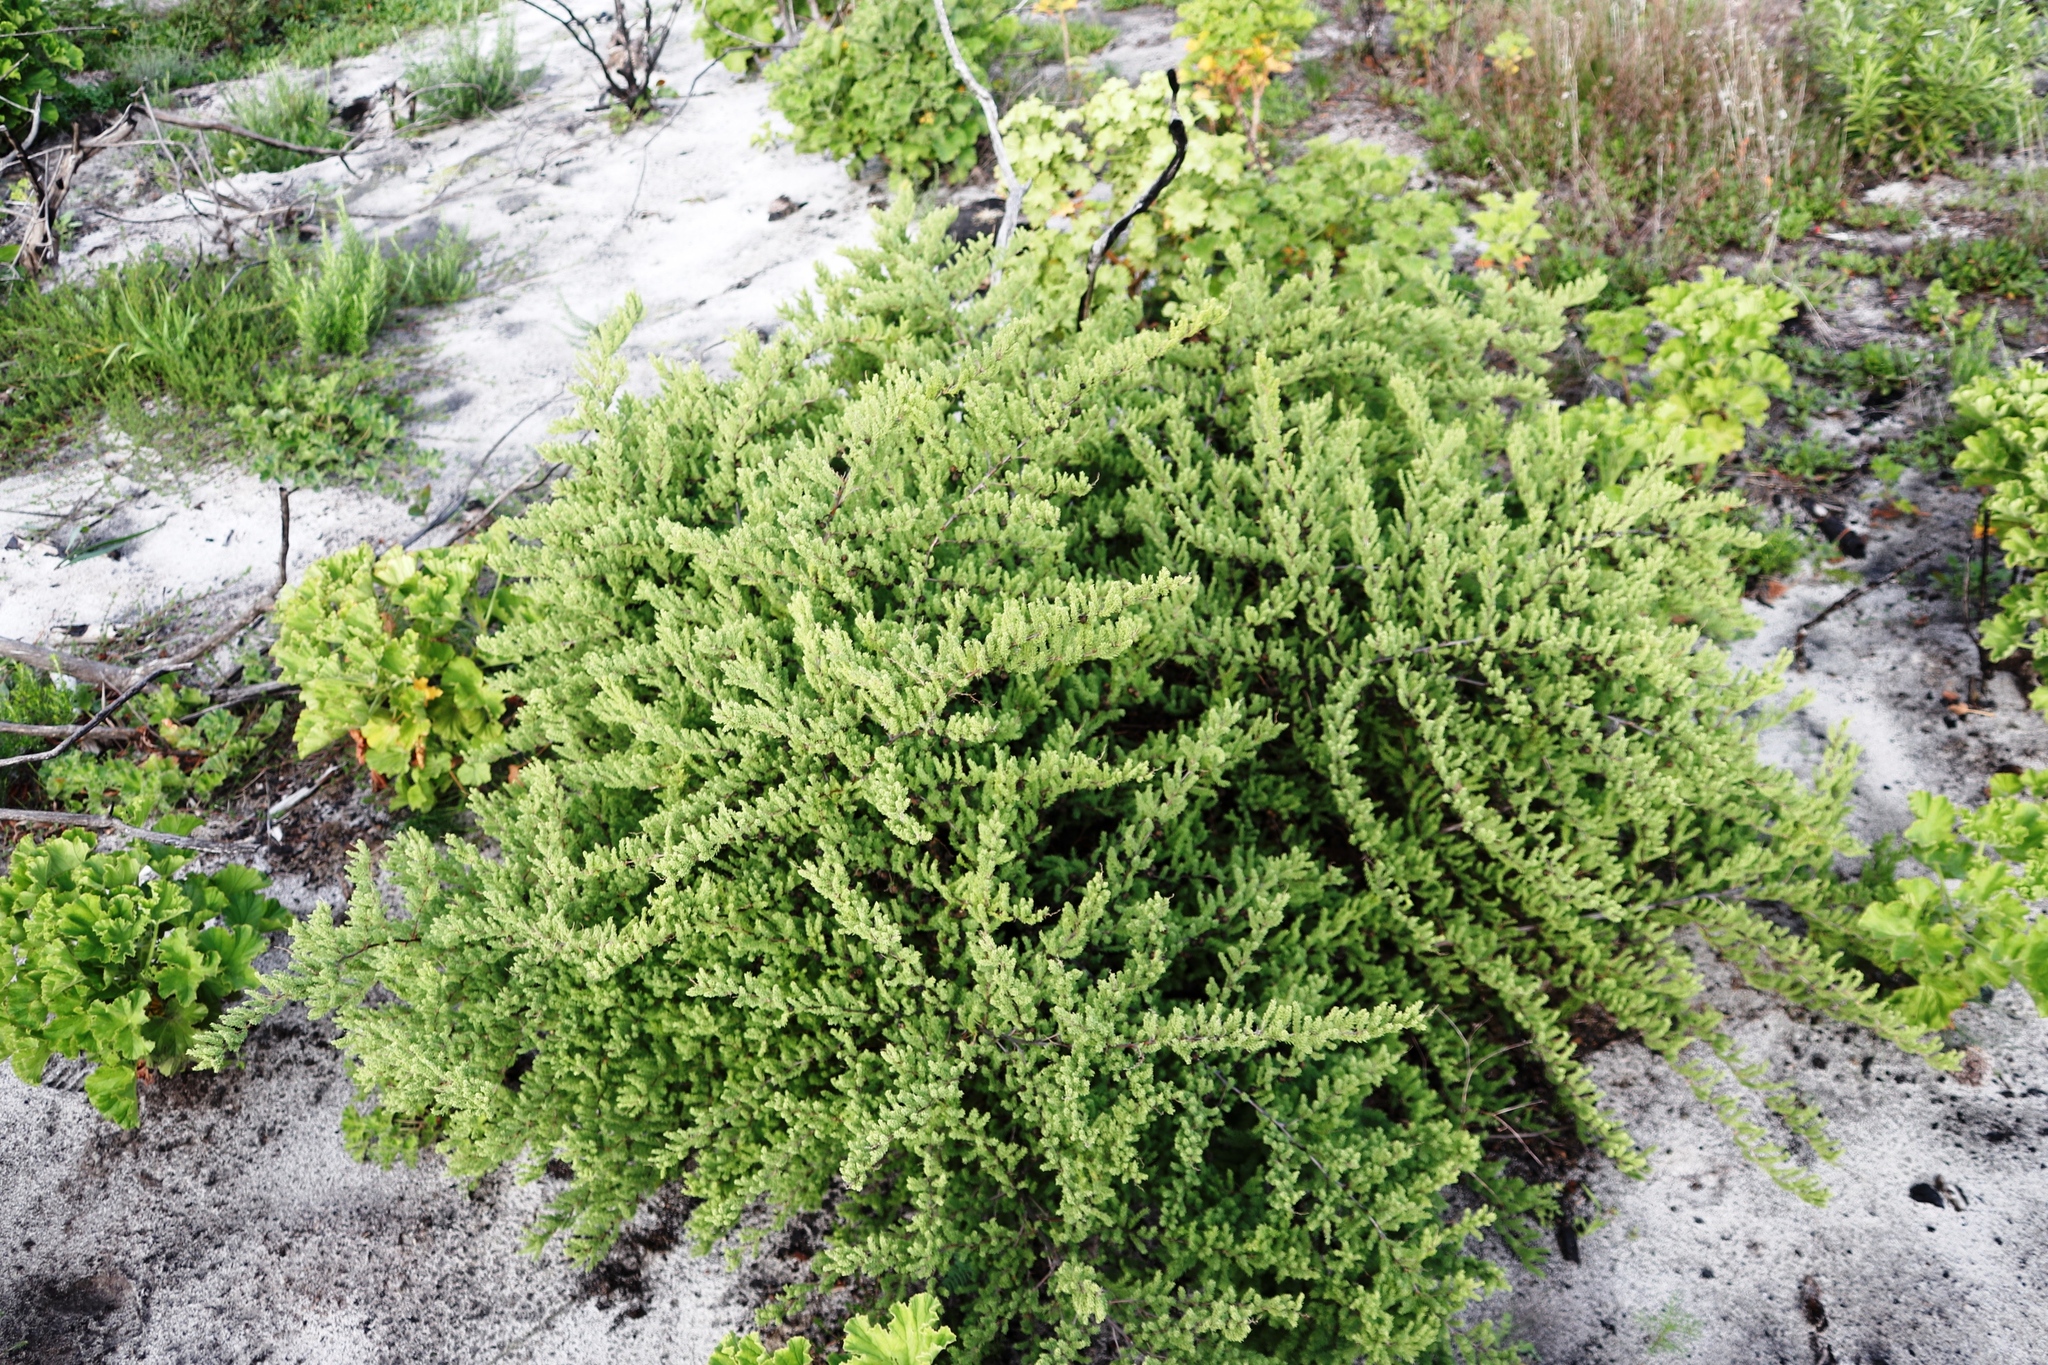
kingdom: Plantae
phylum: Tracheophyta
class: Liliopsida
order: Asparagales
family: Asparagaceae
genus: Asparagus
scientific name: Asparagus rubicundus
